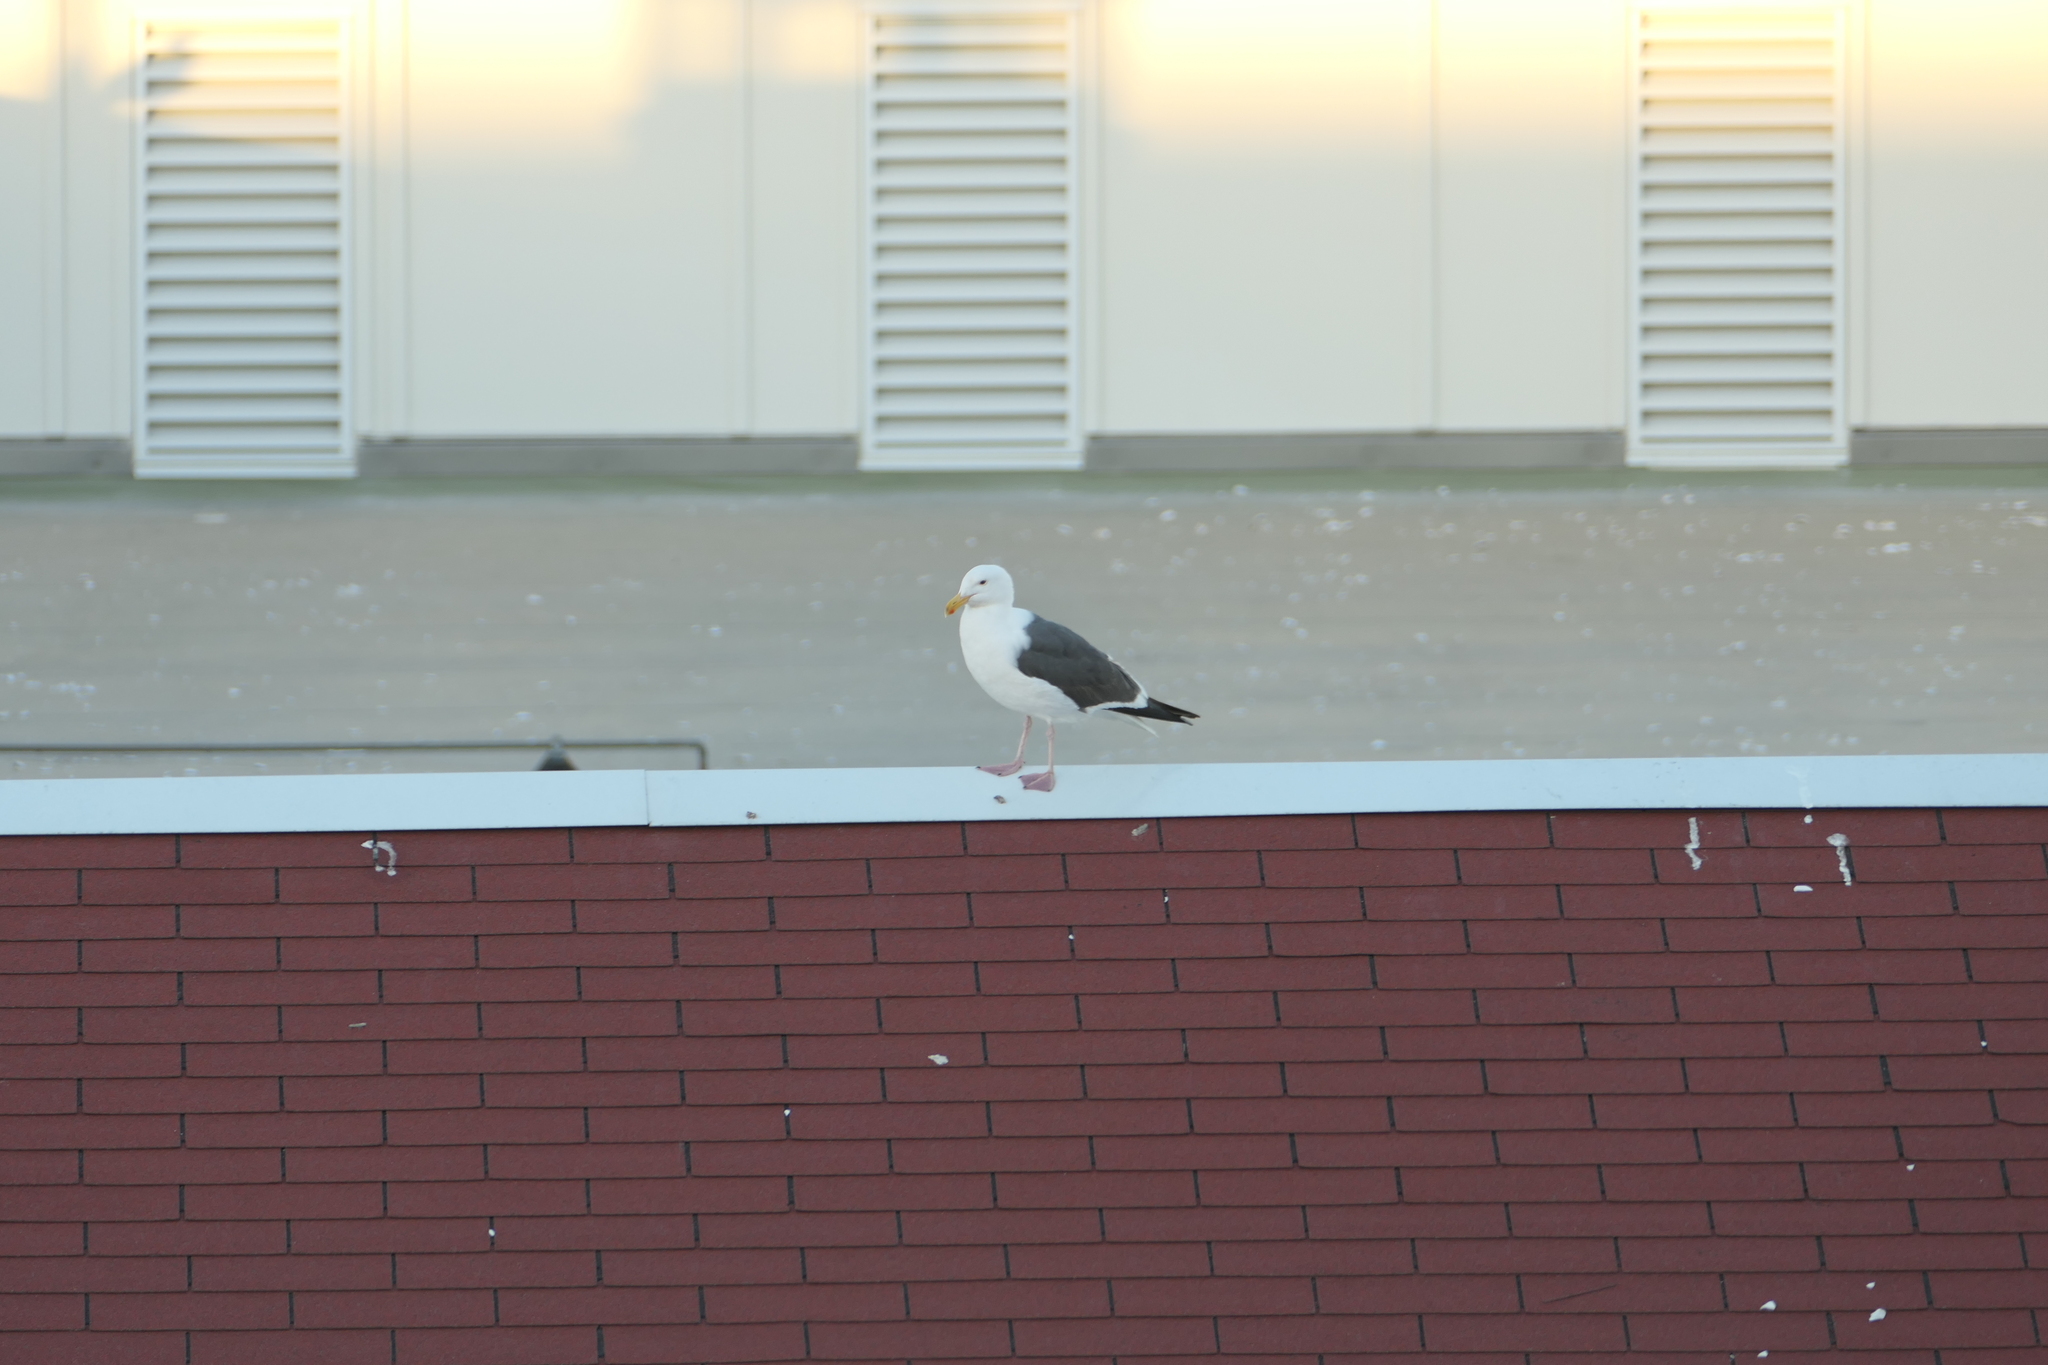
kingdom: Animalia
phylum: Chordata
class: Aves
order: Charadriiformes
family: Laridae
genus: Larus
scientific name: Larus occidentalis
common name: Western gull
